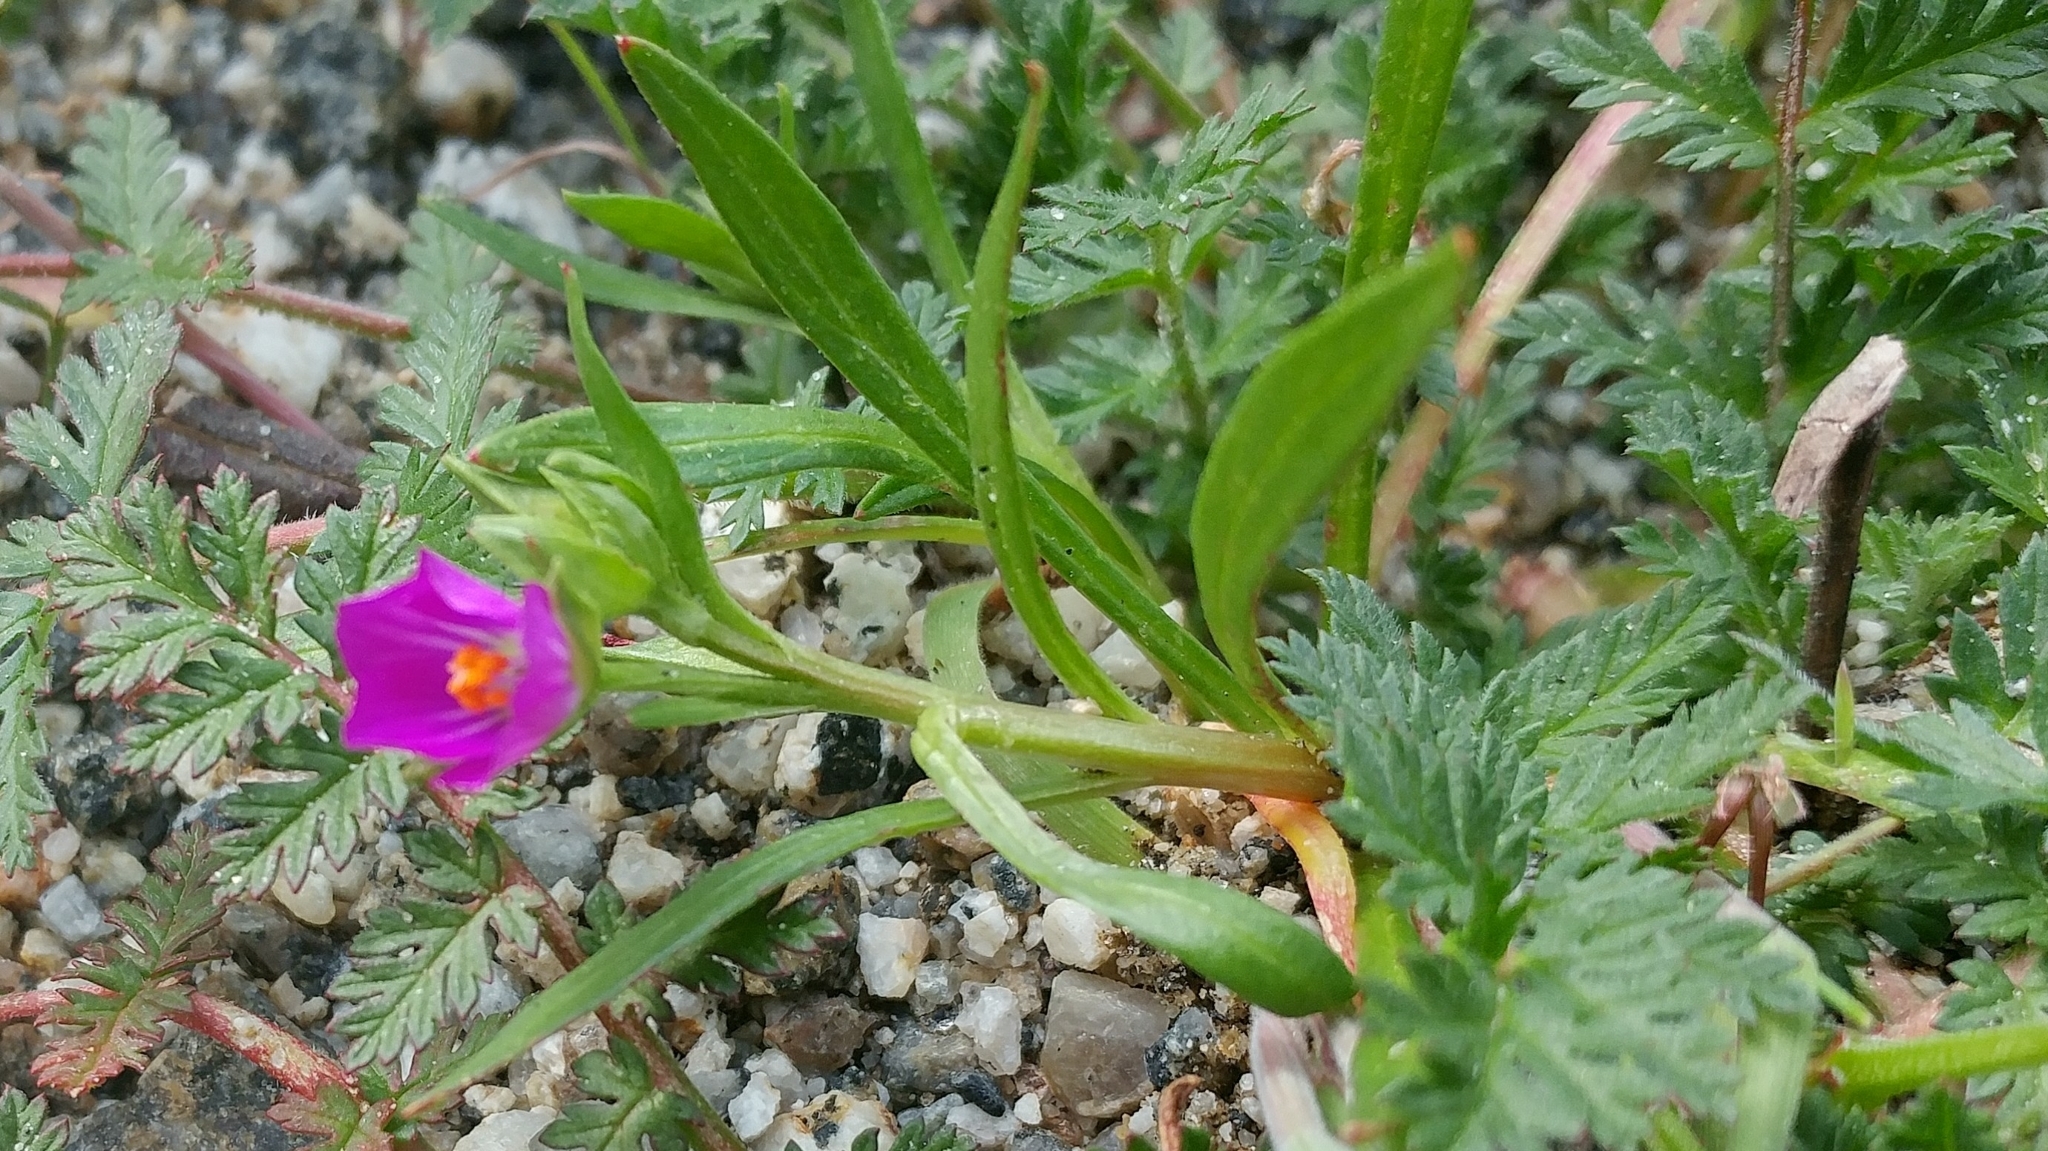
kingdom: Plantae
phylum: Tracheophyta
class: Magnoliopsida
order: Caryophyllales
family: Montiaceae
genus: Calandrinia
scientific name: Calandrinia menziesii
